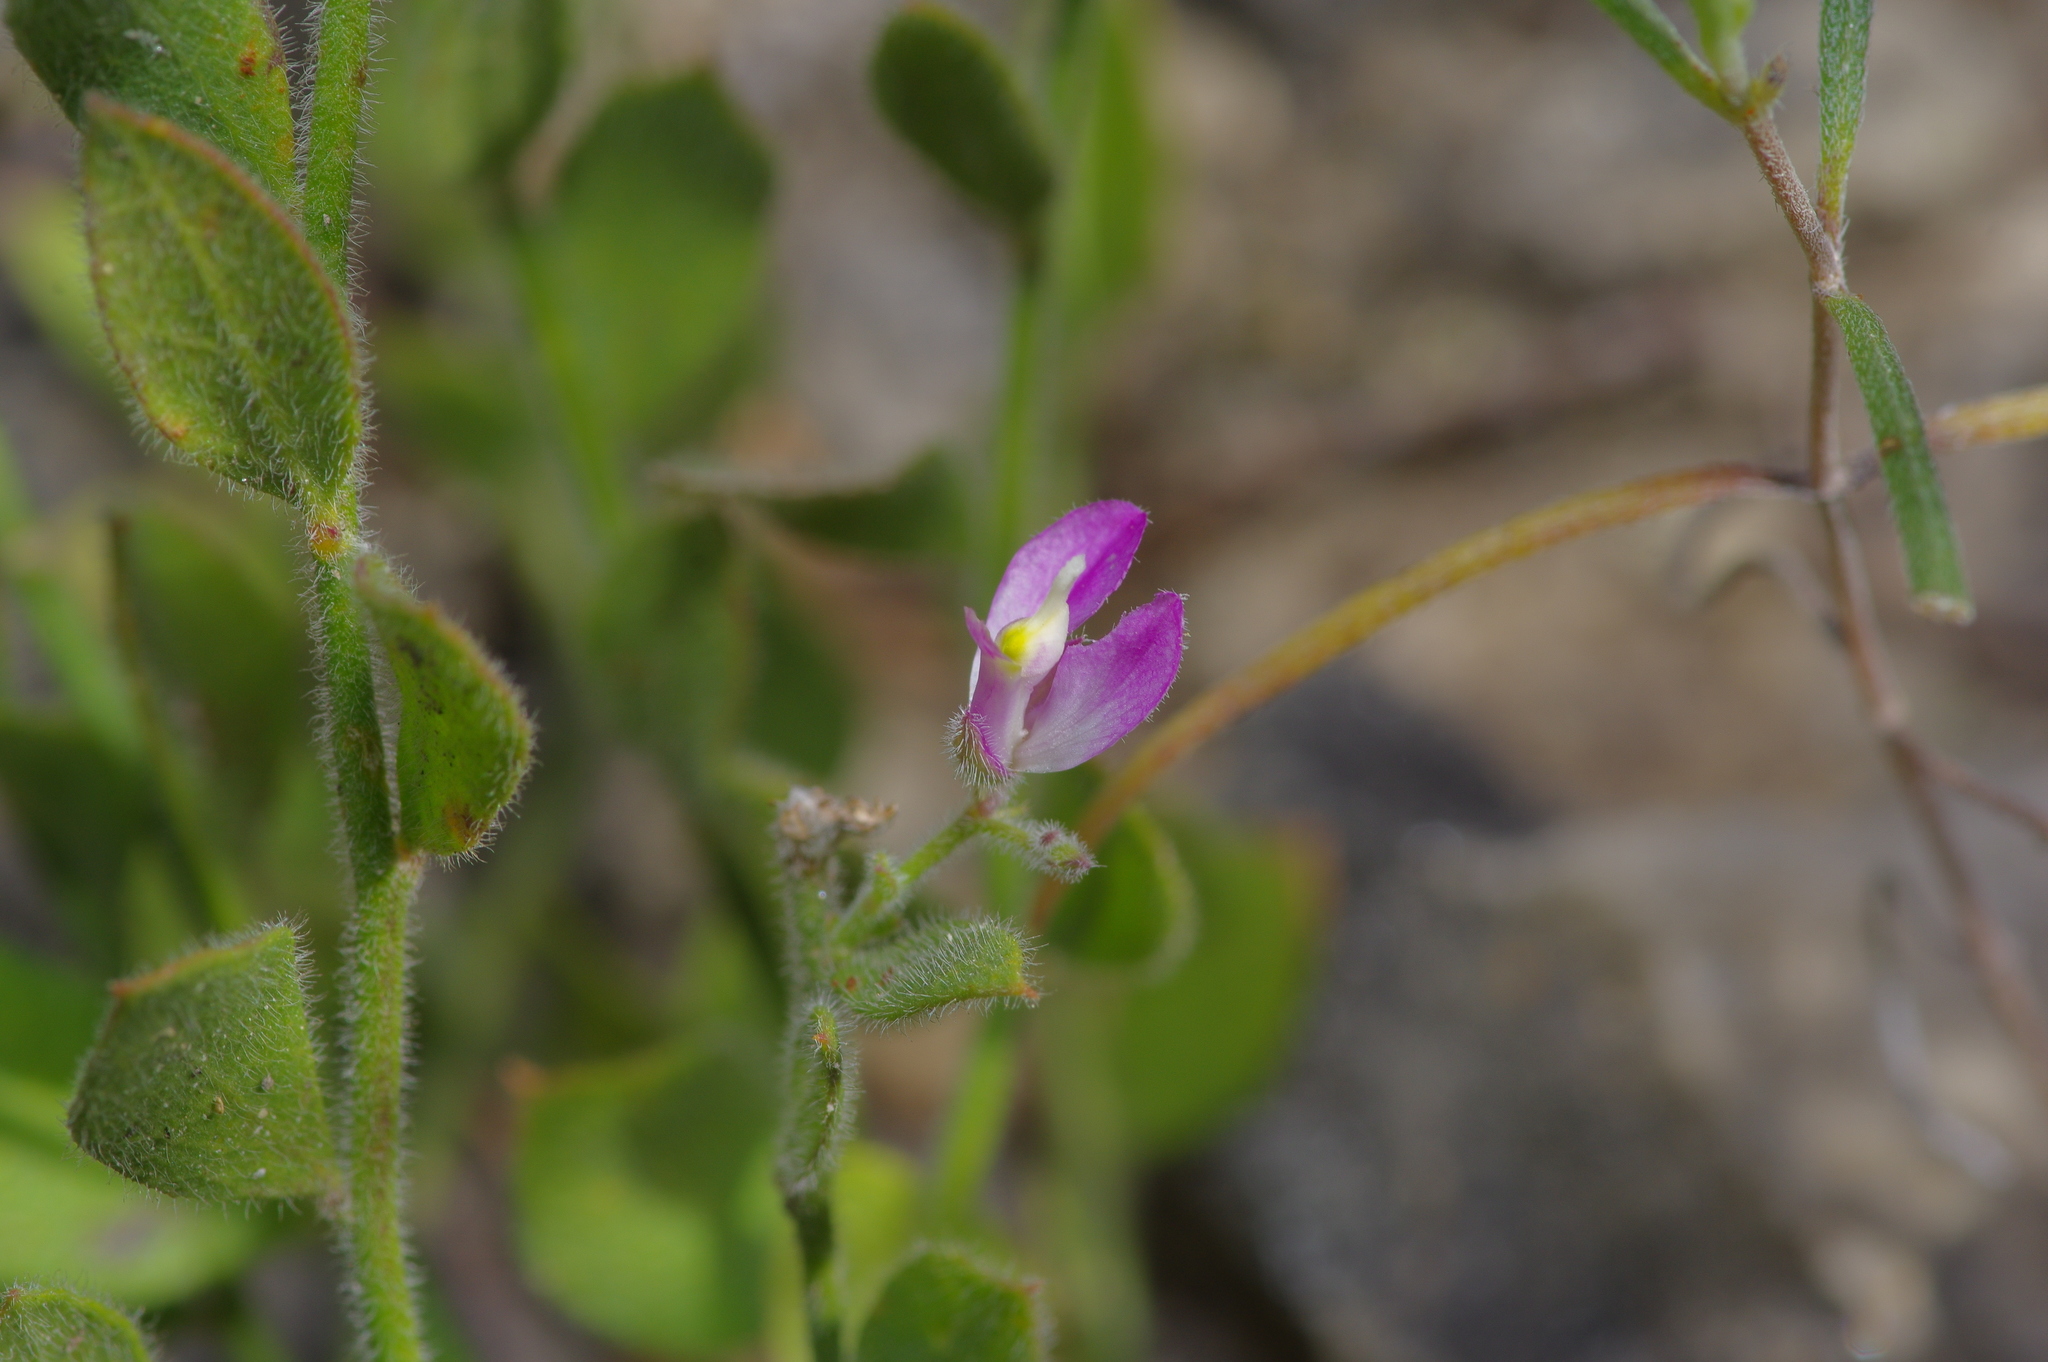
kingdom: Plantae
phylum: Tracheophyta
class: Magnoliopsida
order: Fabales
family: Polygalaceae
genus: Rhinotropis
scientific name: Rhinotropis lindheimeri
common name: Shrubby milkwort
